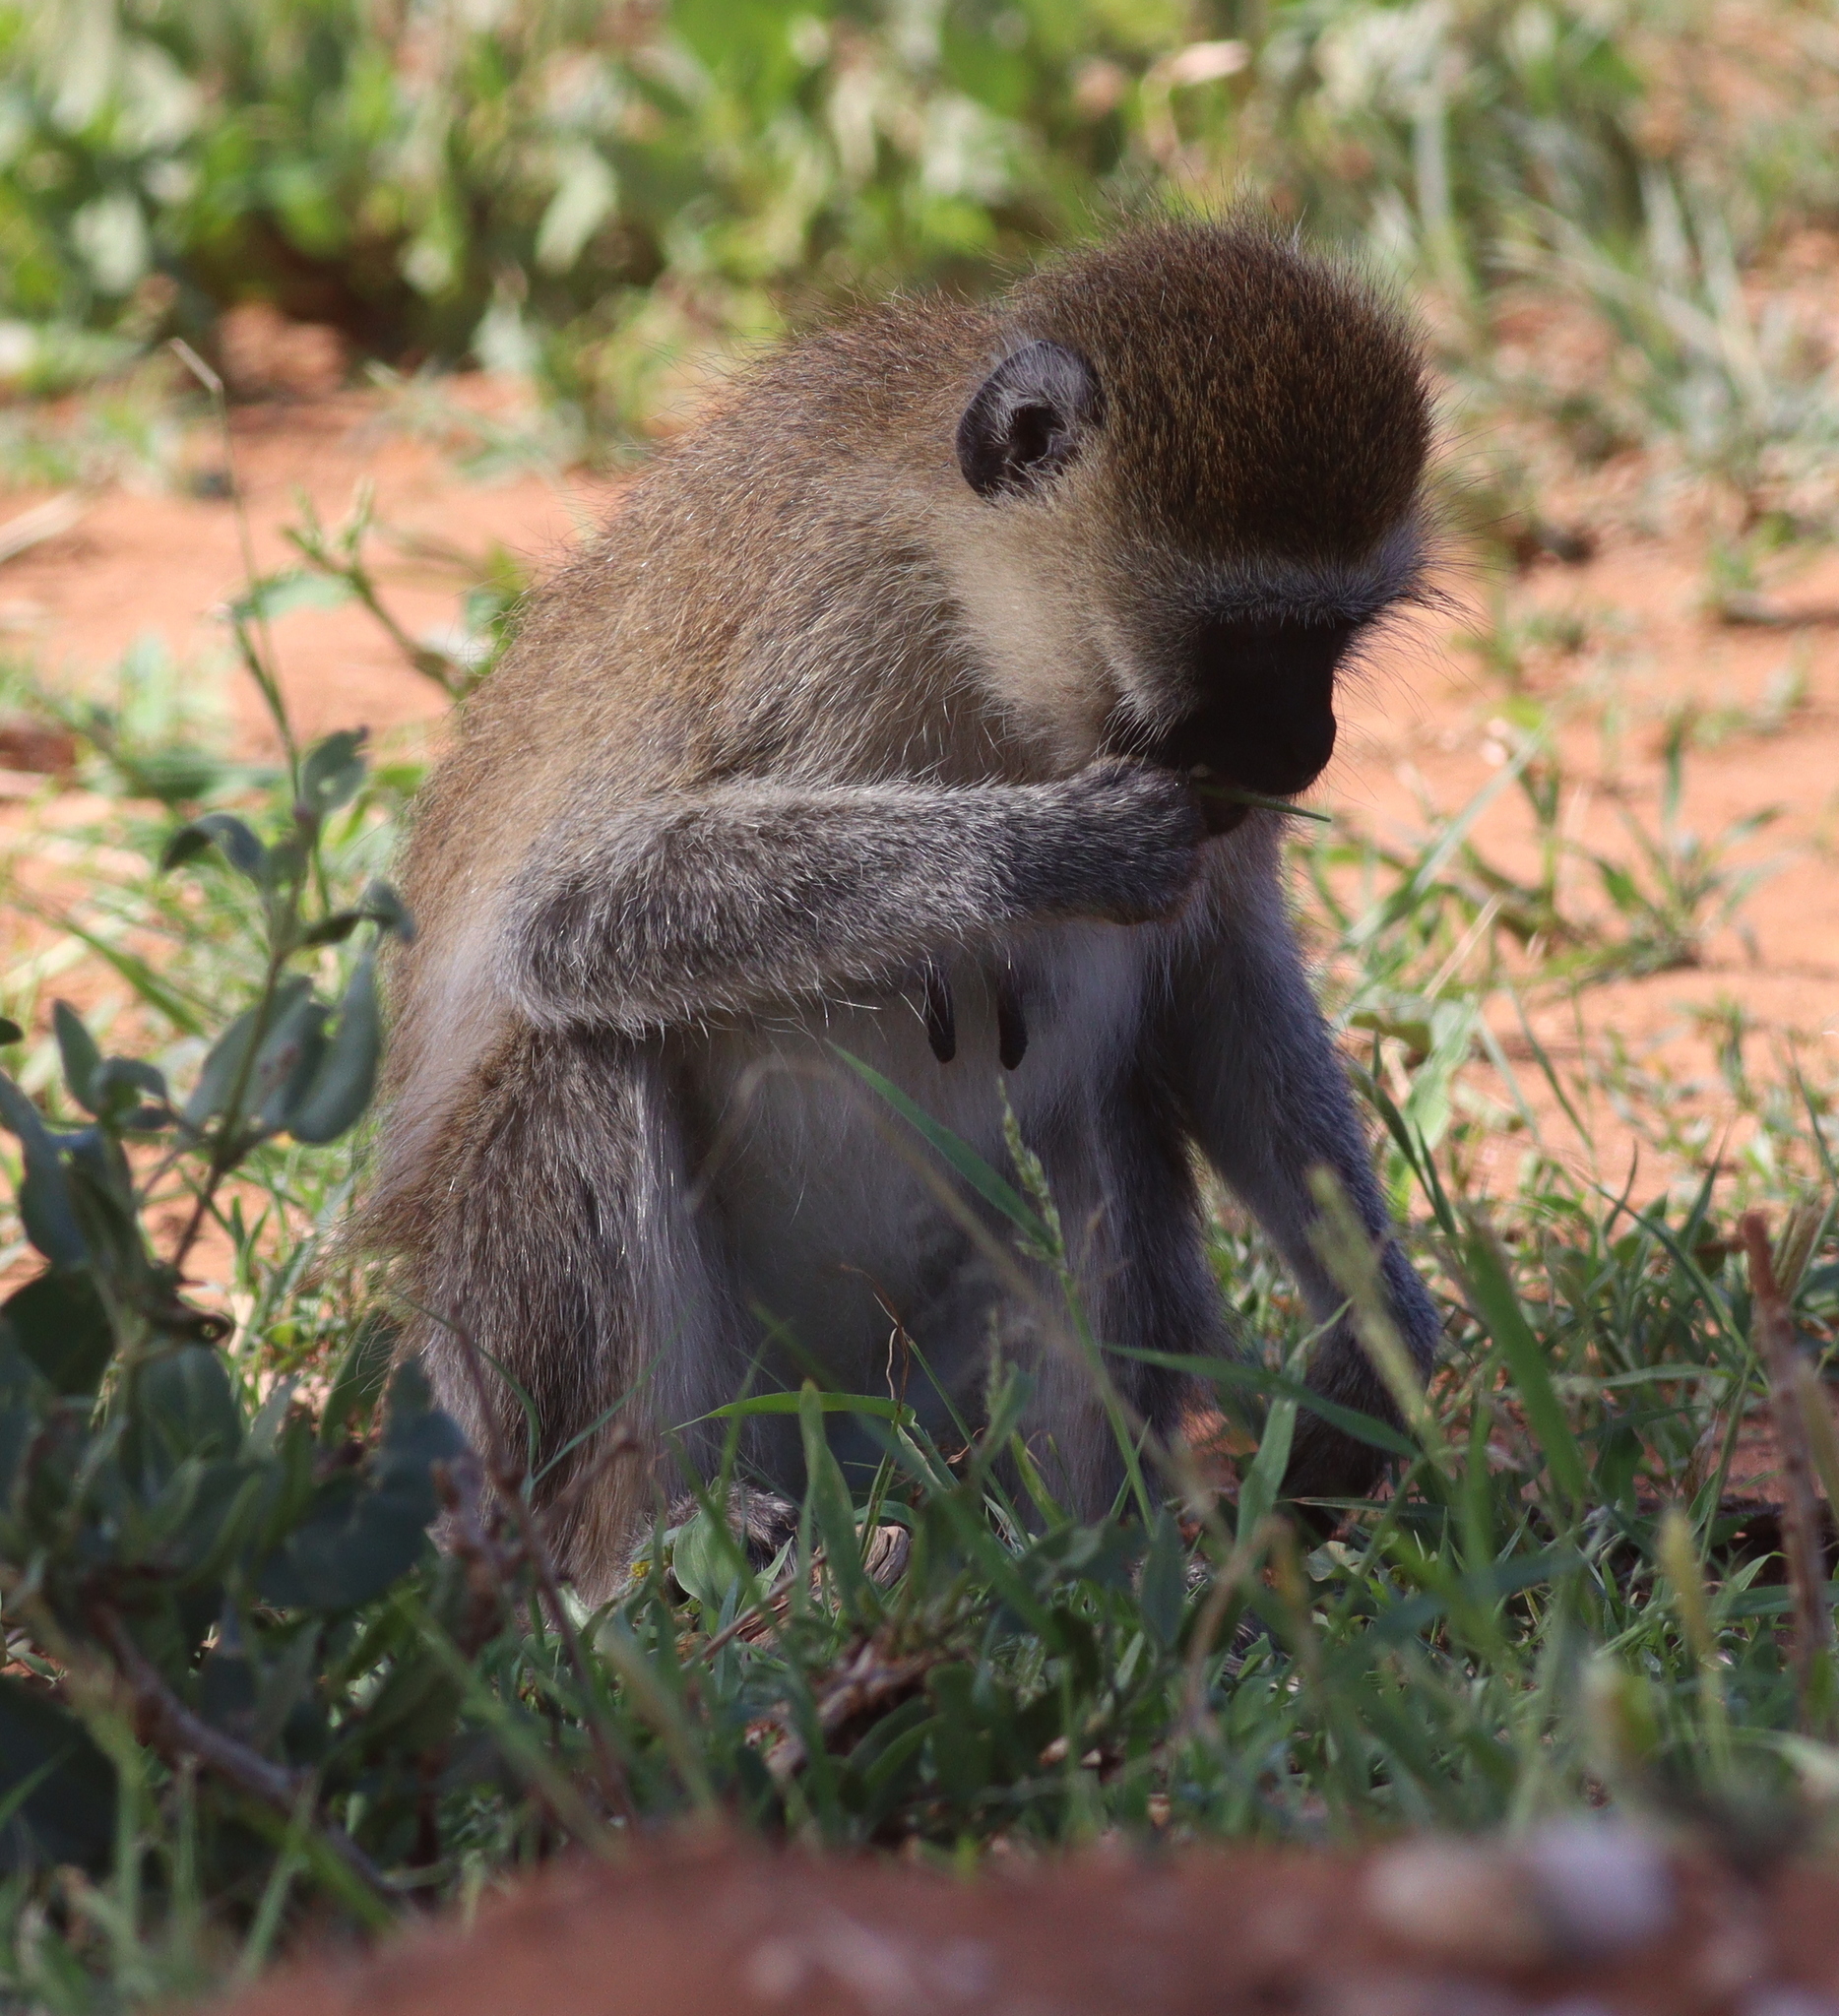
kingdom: Animalia
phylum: Chordata
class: Mammalia
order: Primates
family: Cercopithecidae
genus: Chlorocebus
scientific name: Chlorocebus pygerythrus
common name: Vervet monkey
